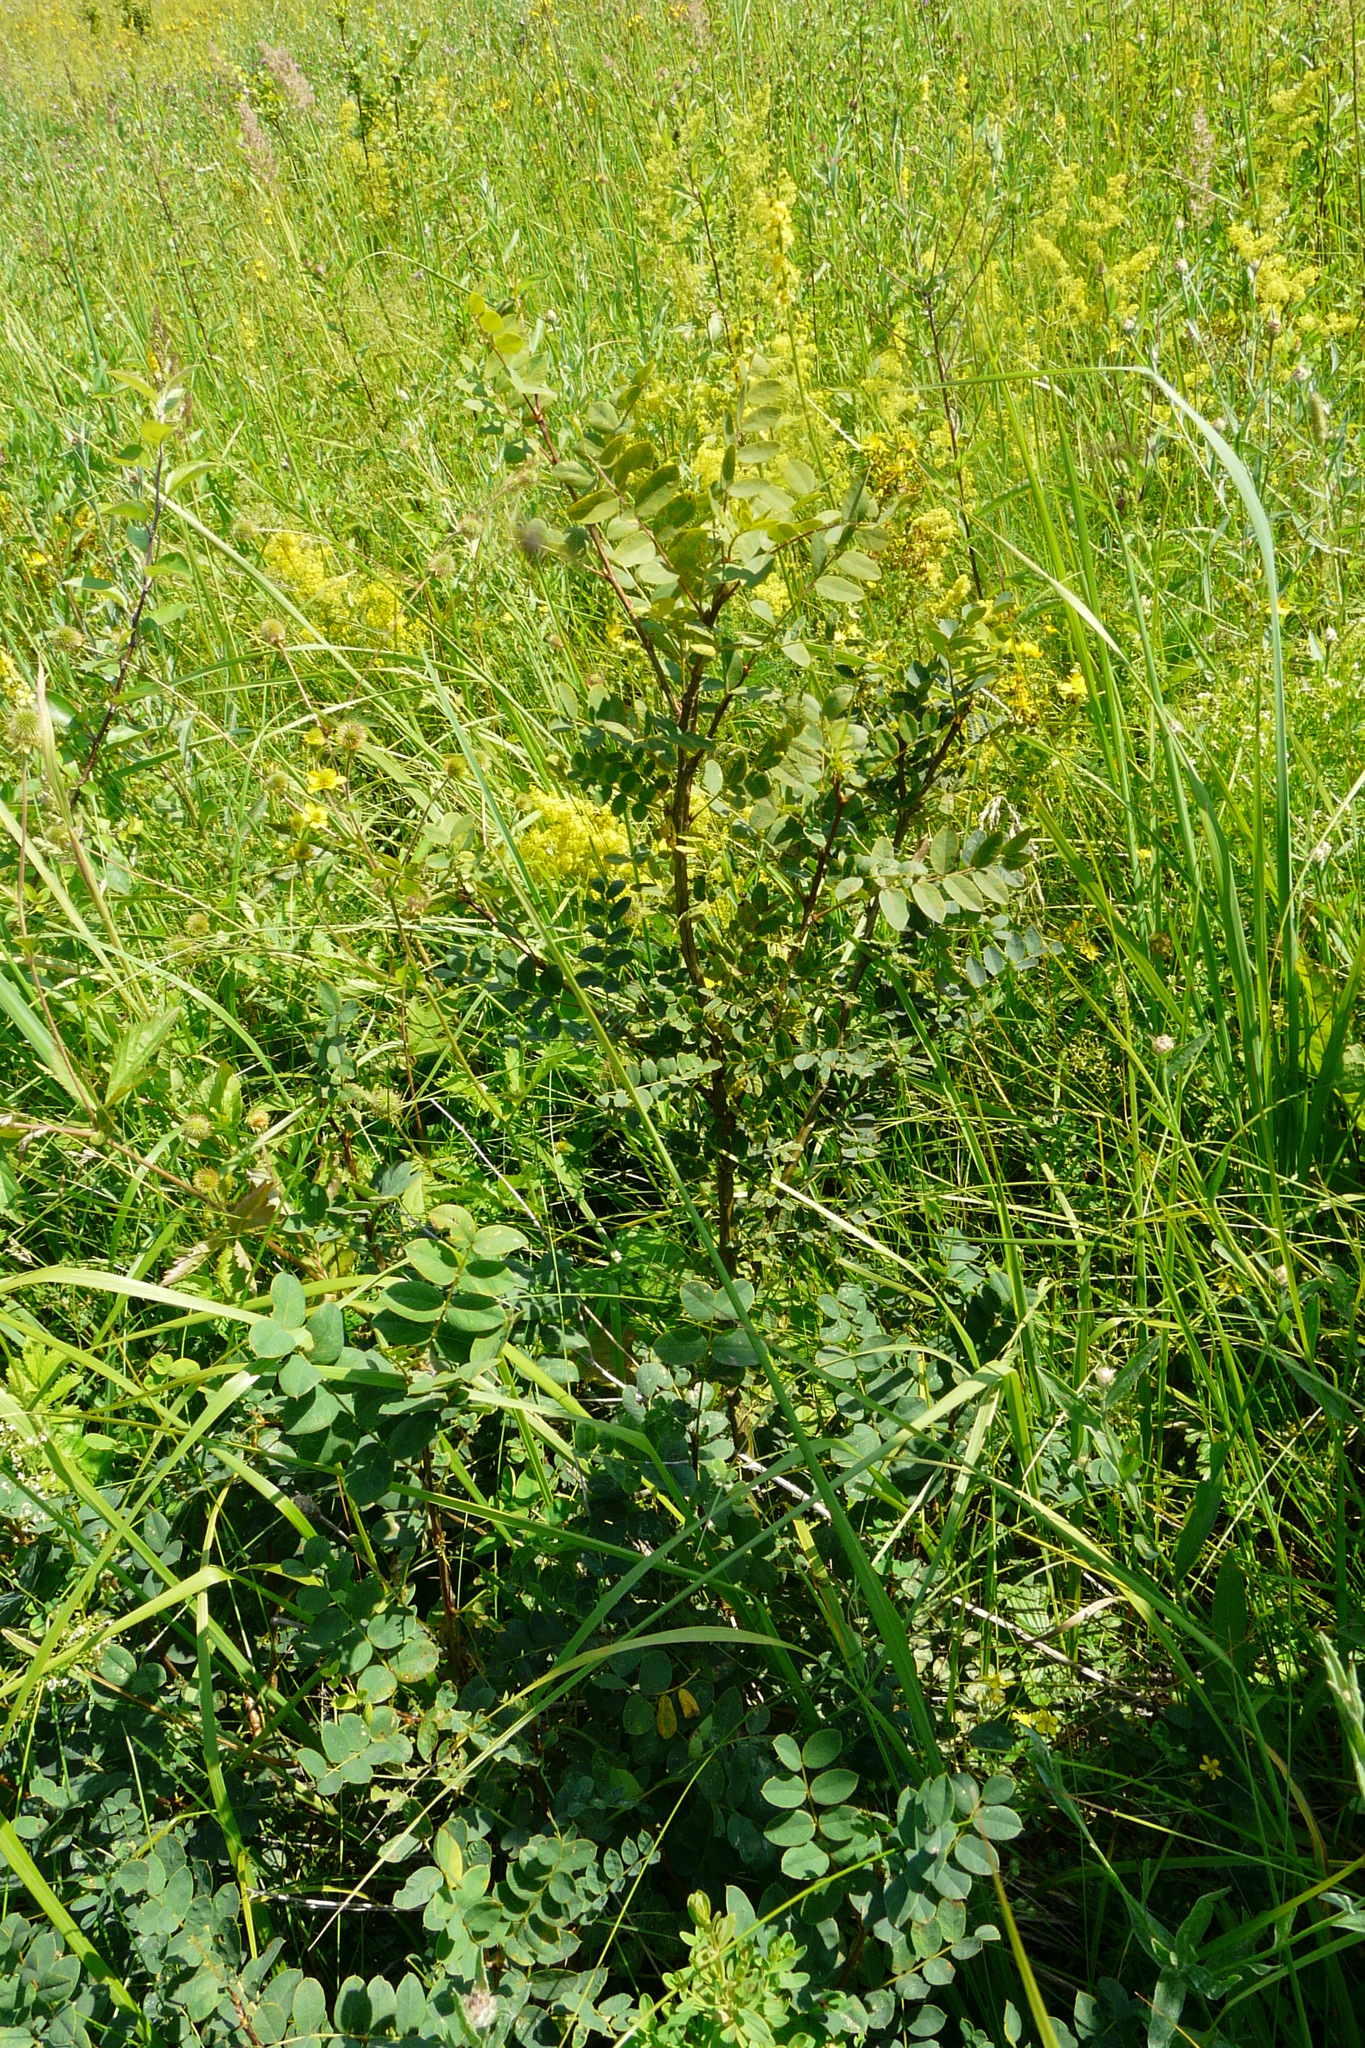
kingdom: Plantae
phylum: Tracheophyta
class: Magnoliopsida
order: Fabales
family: Fabaceae
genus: Caragana
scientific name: Caragana arborescens
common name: Siberian peashrub
